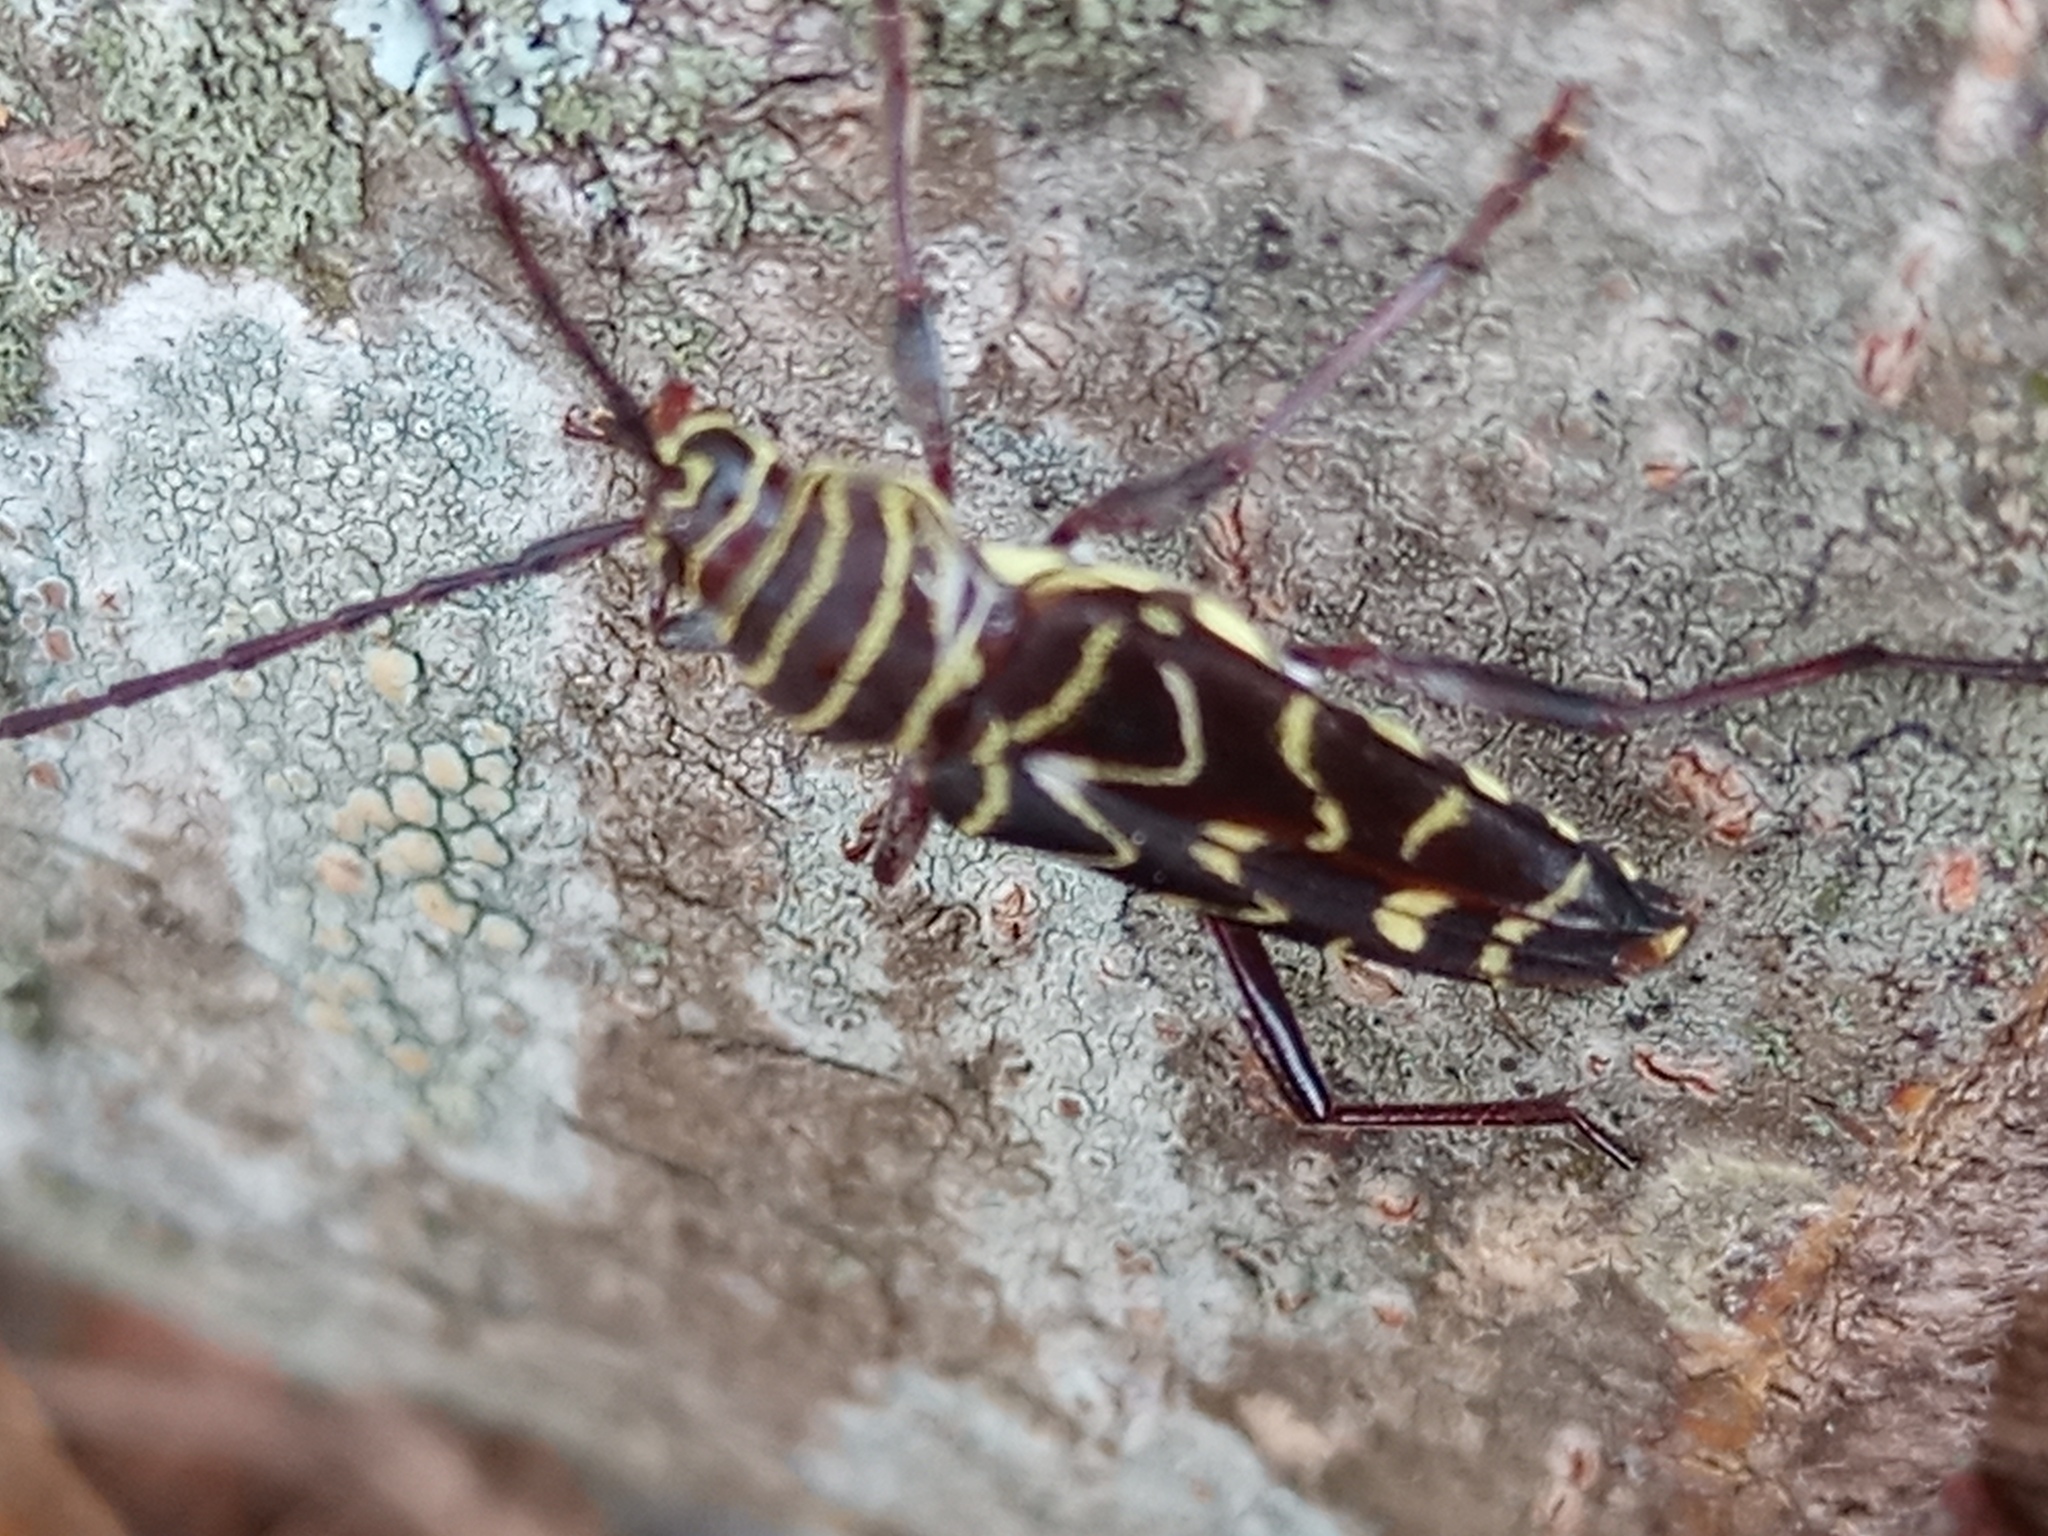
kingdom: Animalia
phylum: Arthropoda
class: Insecta
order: Coleoptera
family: Cerambycidae
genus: Megacyllene
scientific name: Megacyllene acuta
